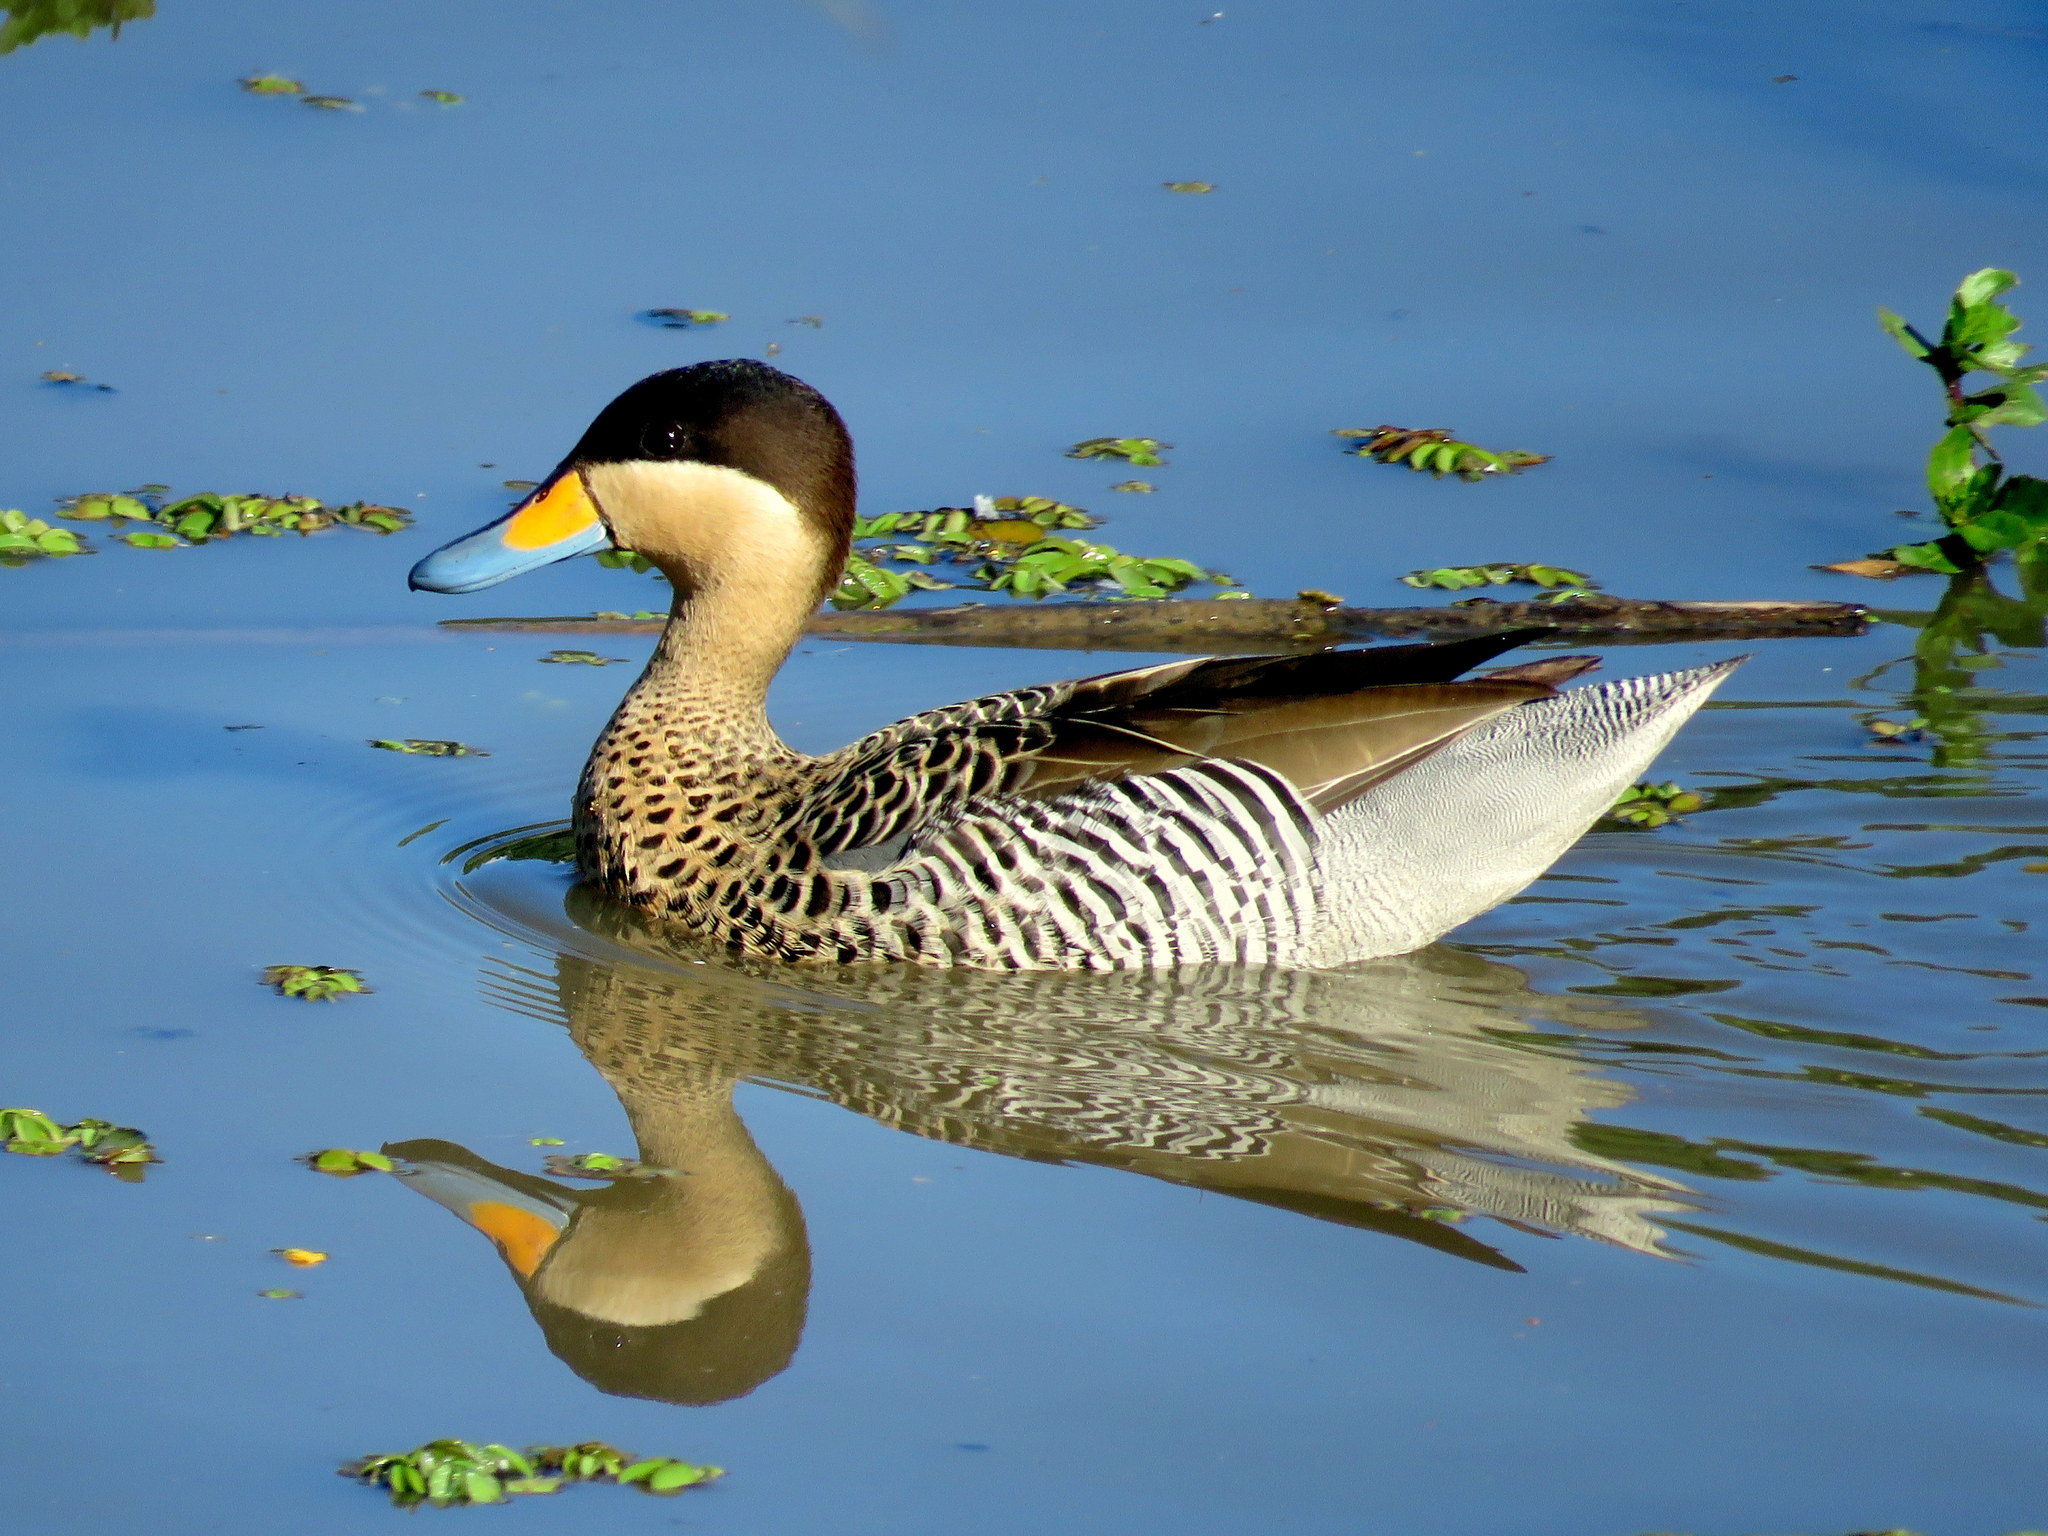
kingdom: Animalia
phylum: Chordata
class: Aves
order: Anseriformes
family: Anatidae
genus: Spatula
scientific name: Spatula versicolor
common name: Silver teal
